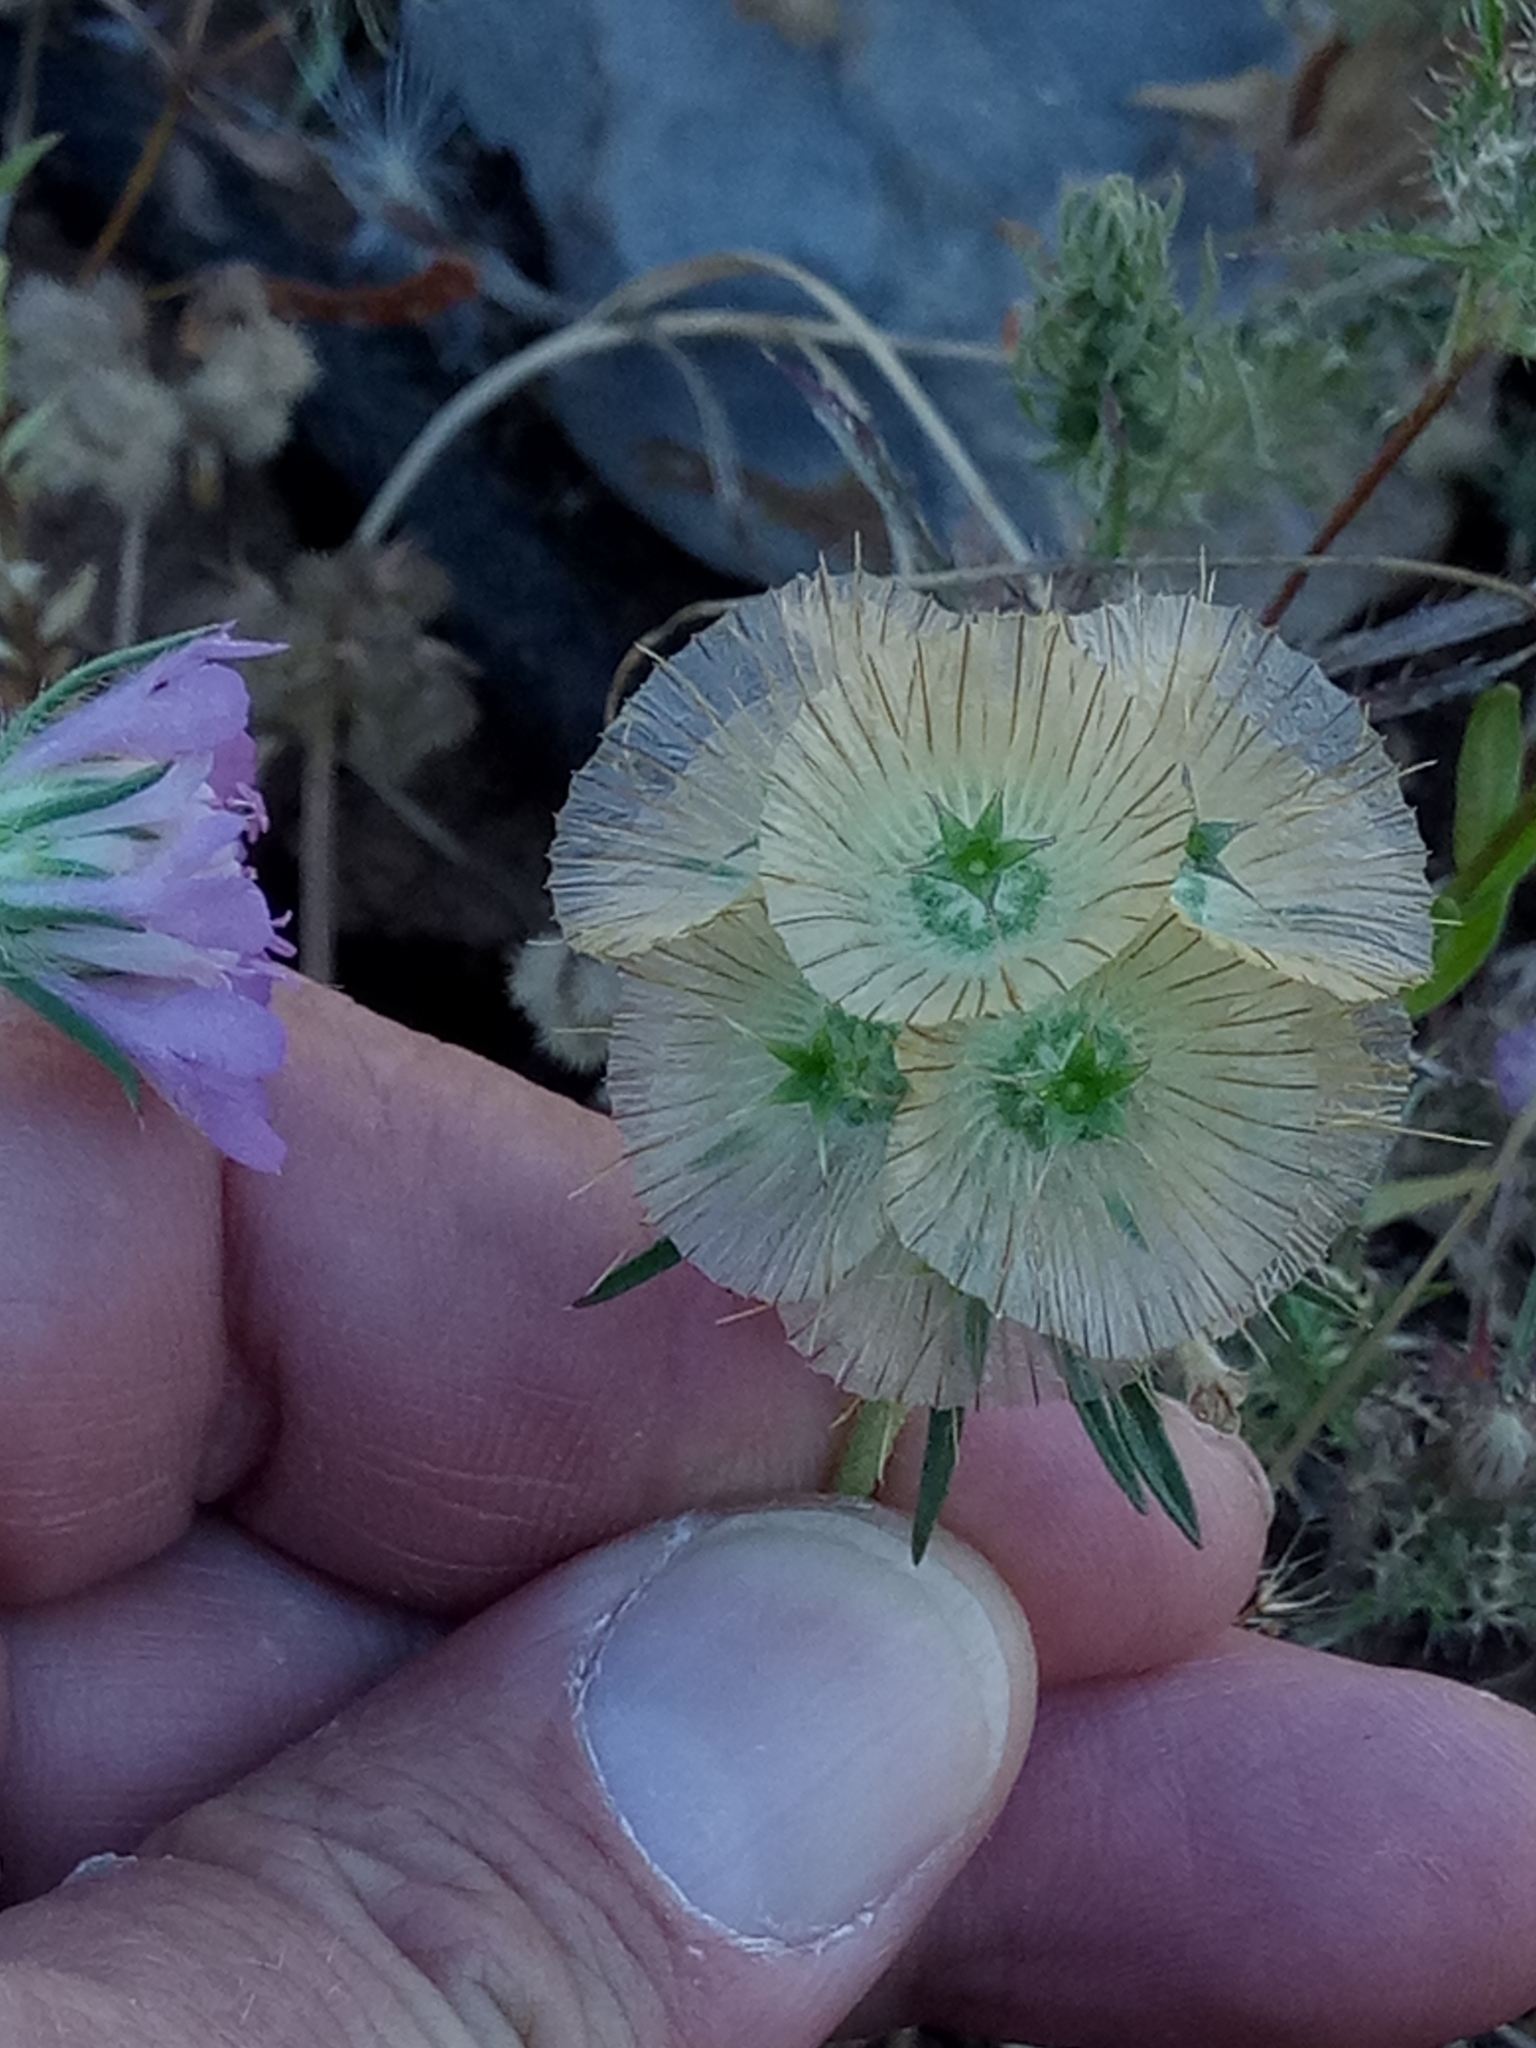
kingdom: Plantae
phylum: Tracheophyta
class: Magnoliopsida
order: Dipsacales
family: Caprifoliaceae
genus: Lomelosia
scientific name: Lomelosia simplex
